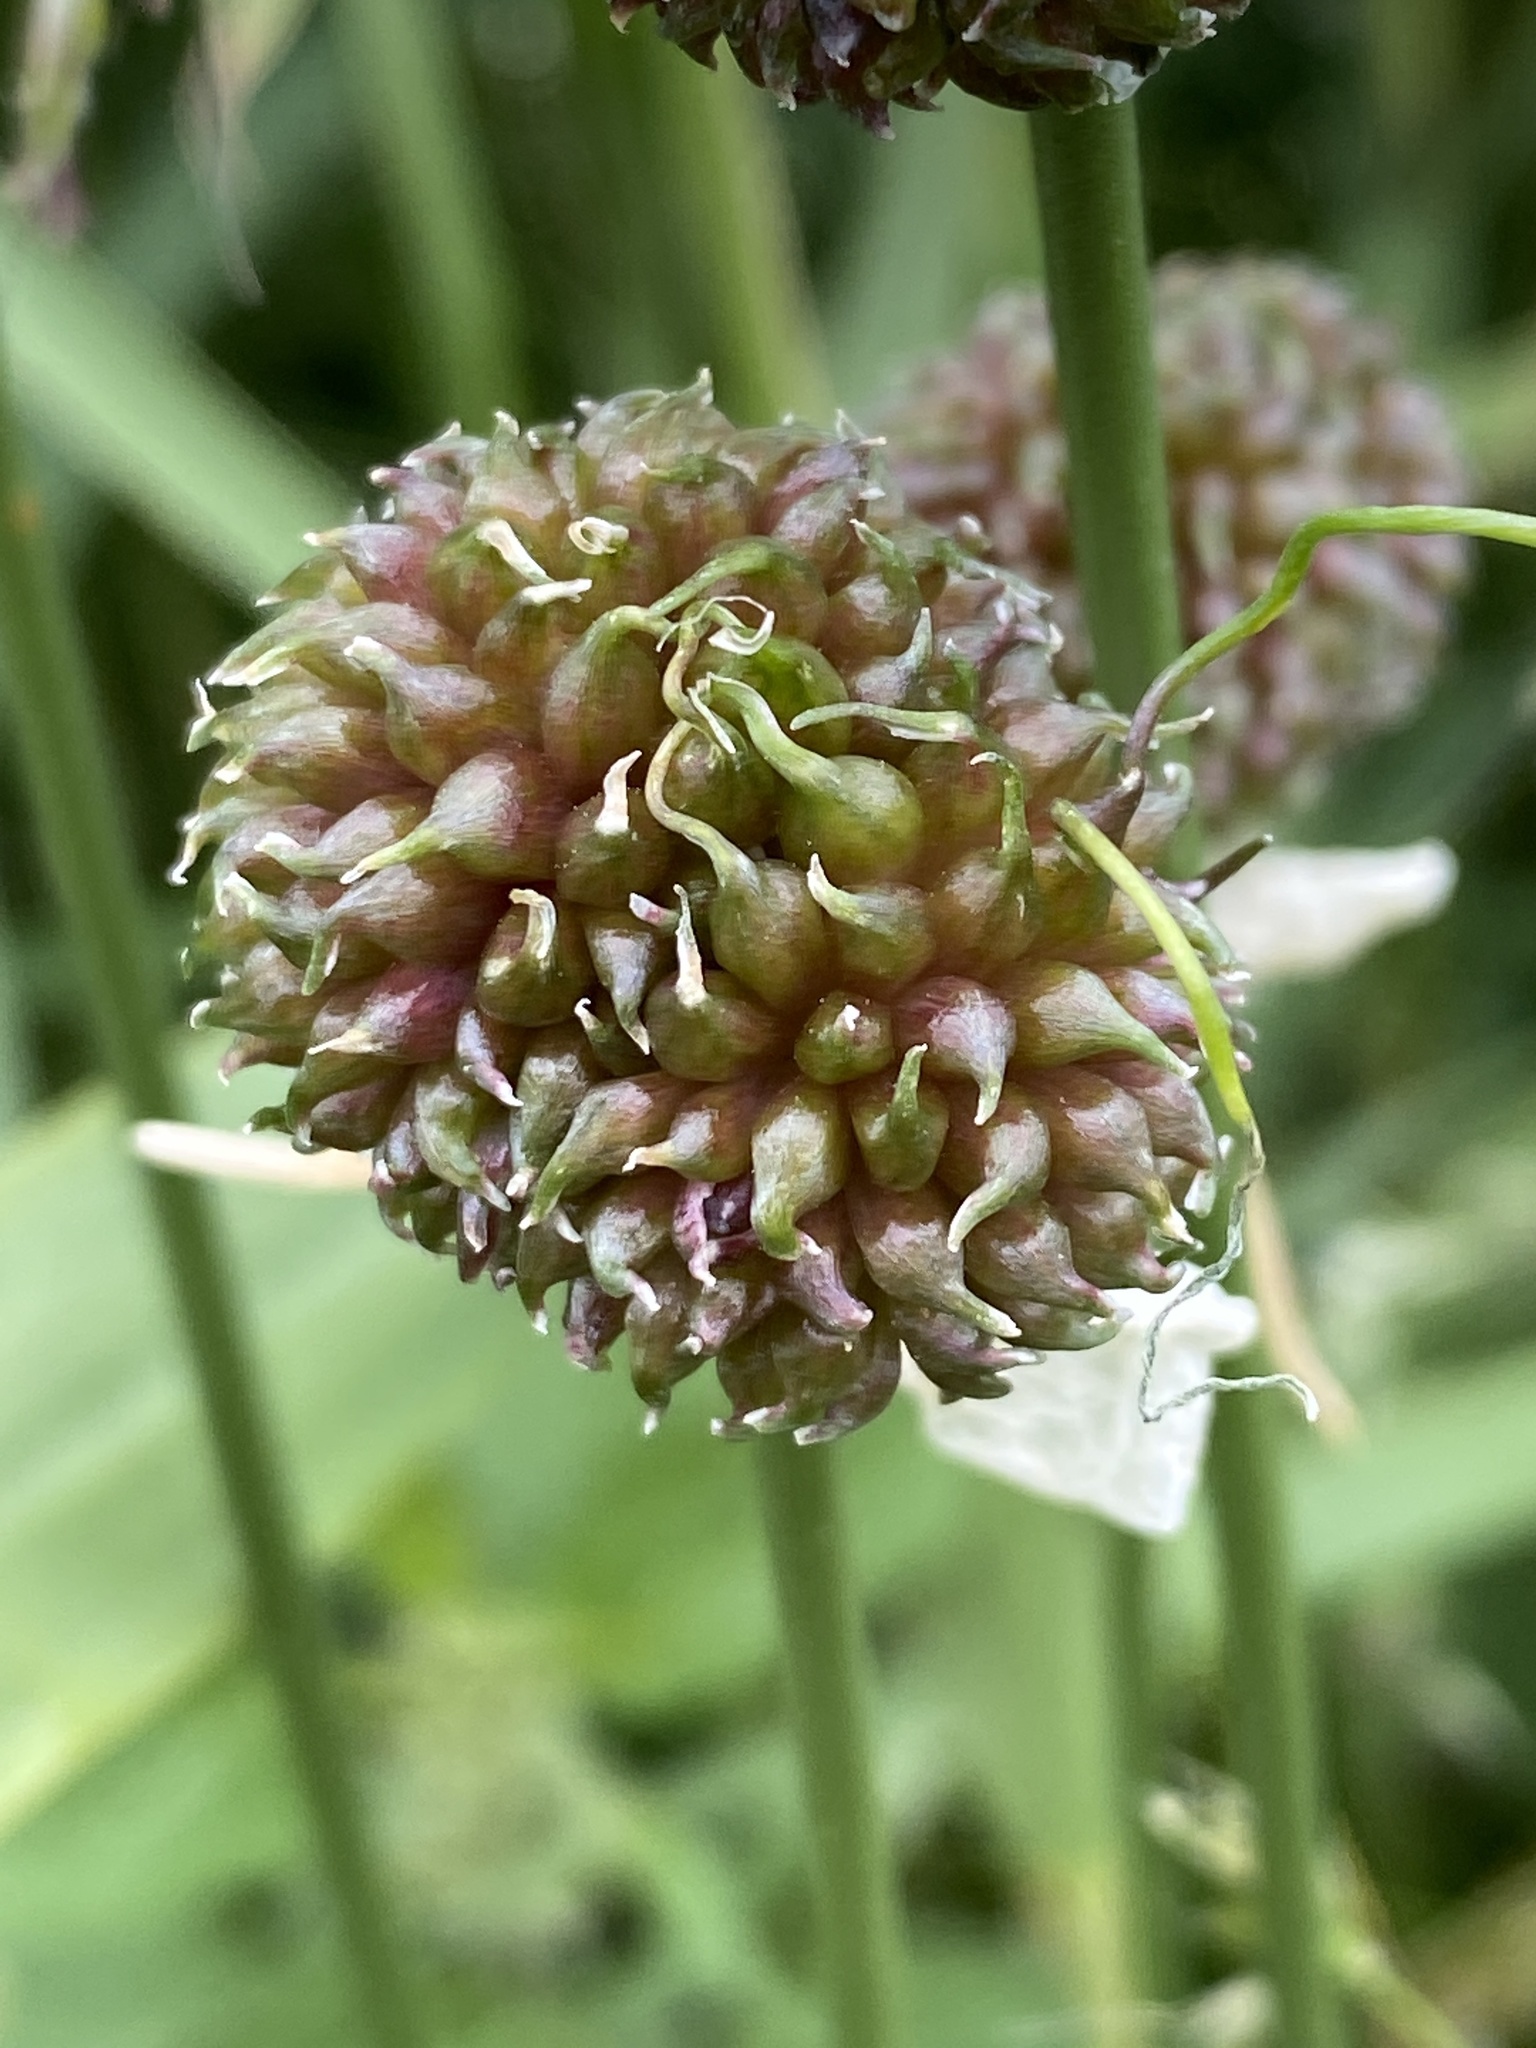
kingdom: Plantae
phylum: Tracheophyta
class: Liliopsida
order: Asparagales
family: Amaryllidaceae
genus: Allium
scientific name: Allium vineale
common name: Crow garlic
